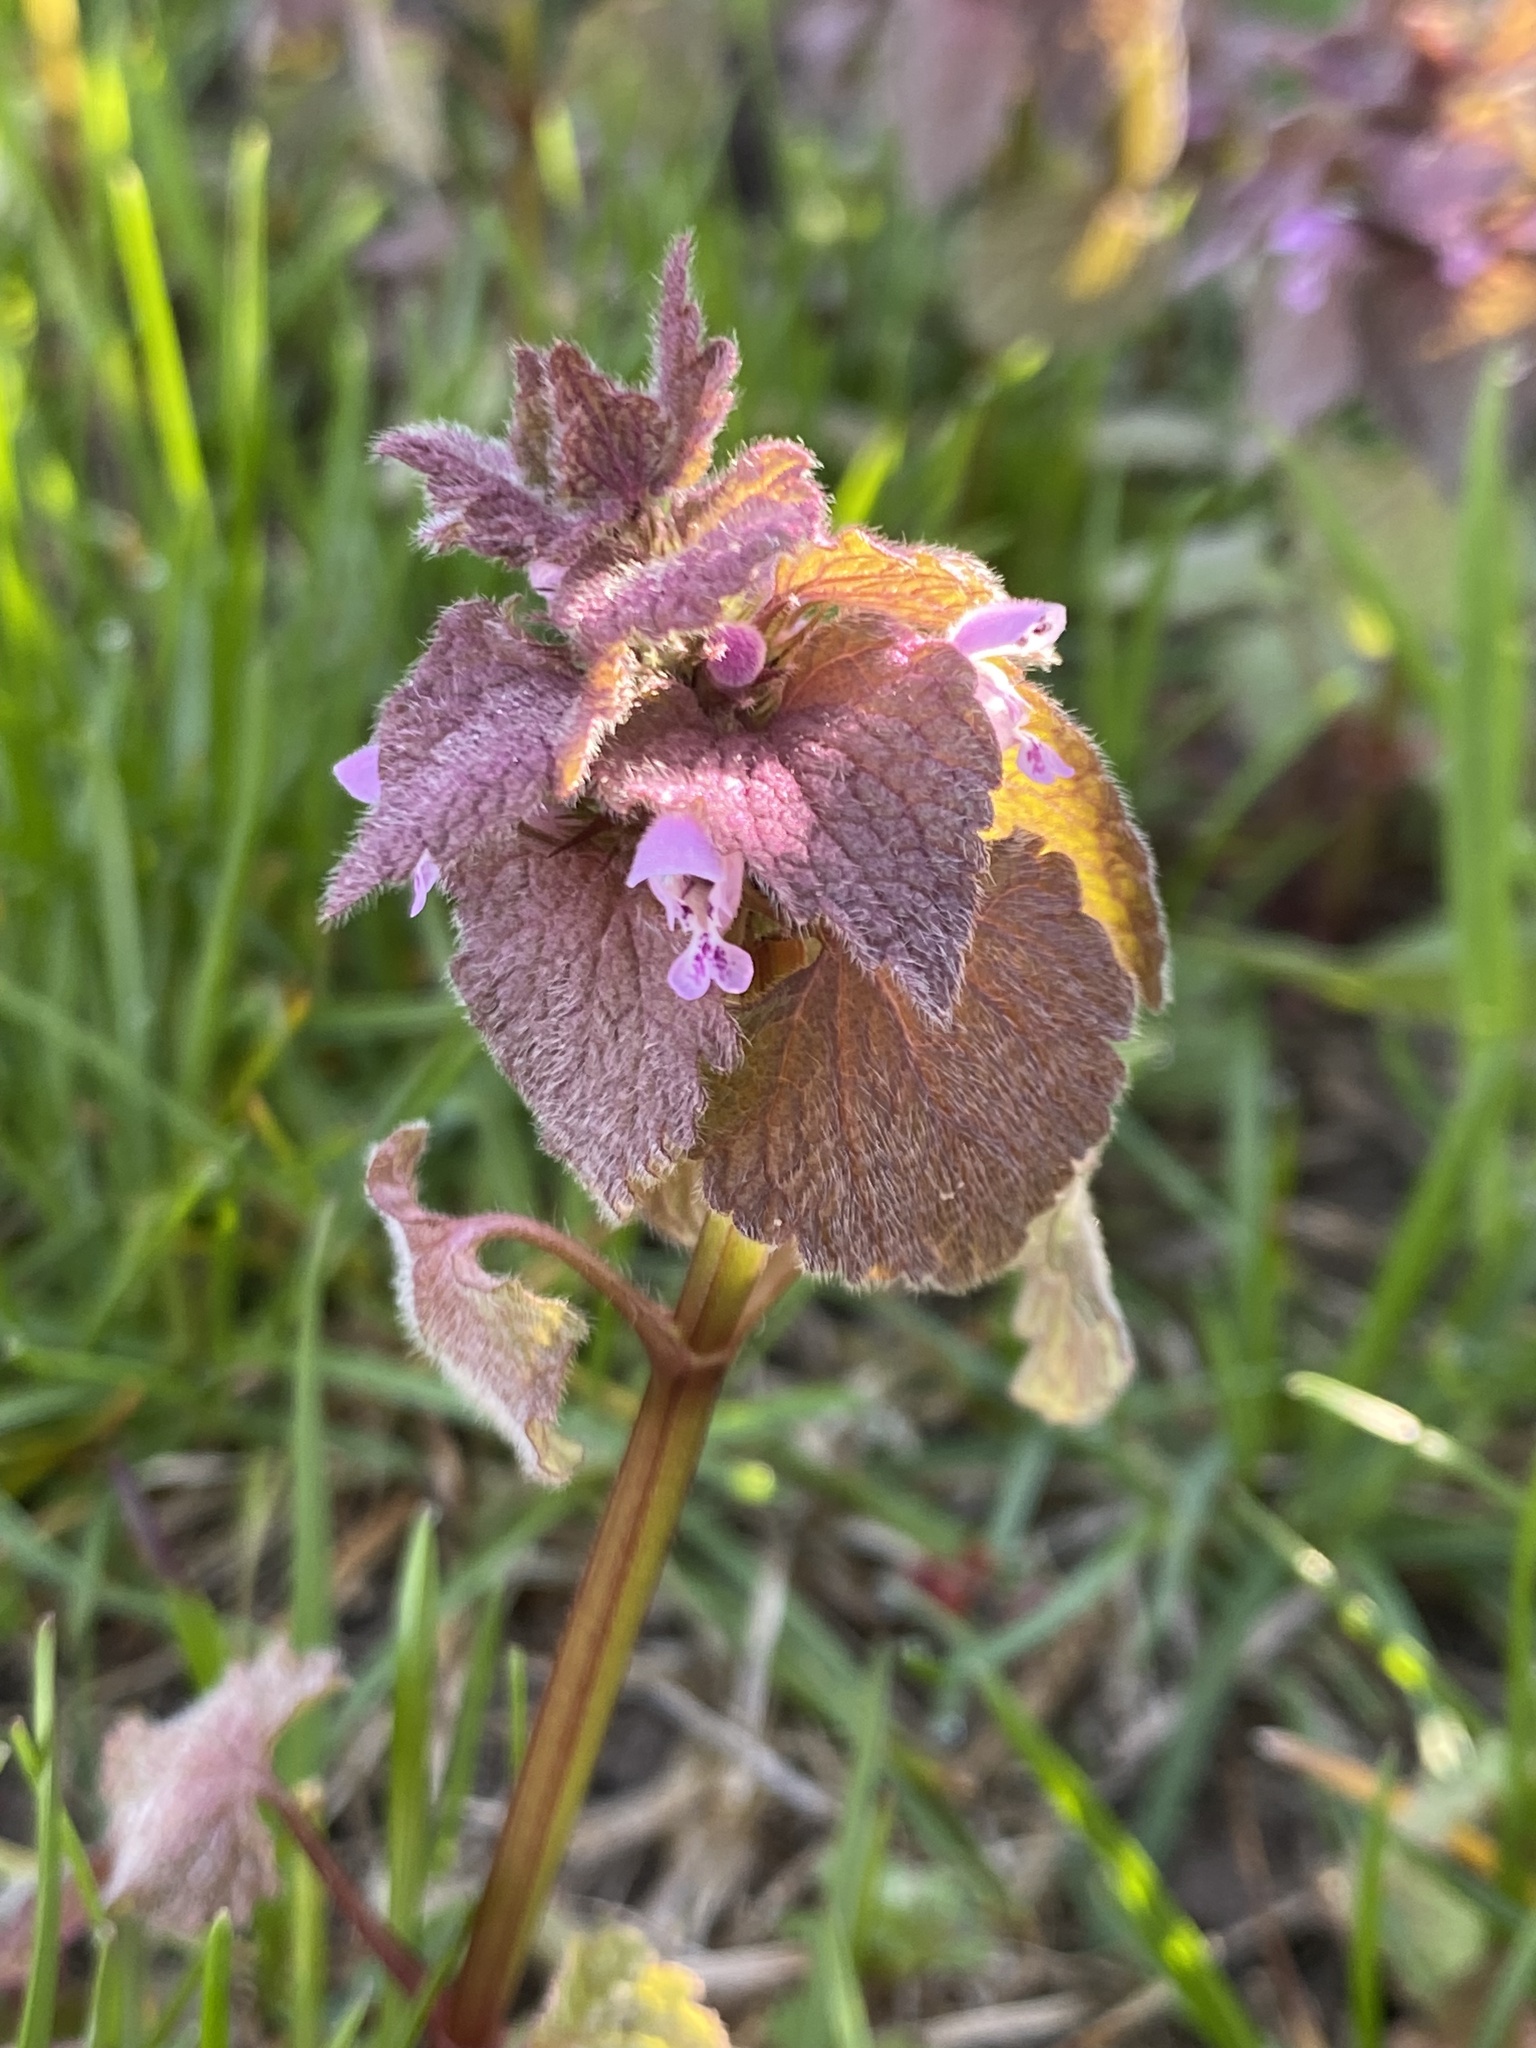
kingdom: Plantae
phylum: Tracheophyta
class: Magnoliopsida
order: Lamiales
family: Lamiaceae
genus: Lamium
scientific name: Lamium purpureum
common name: Red dead-nettle
